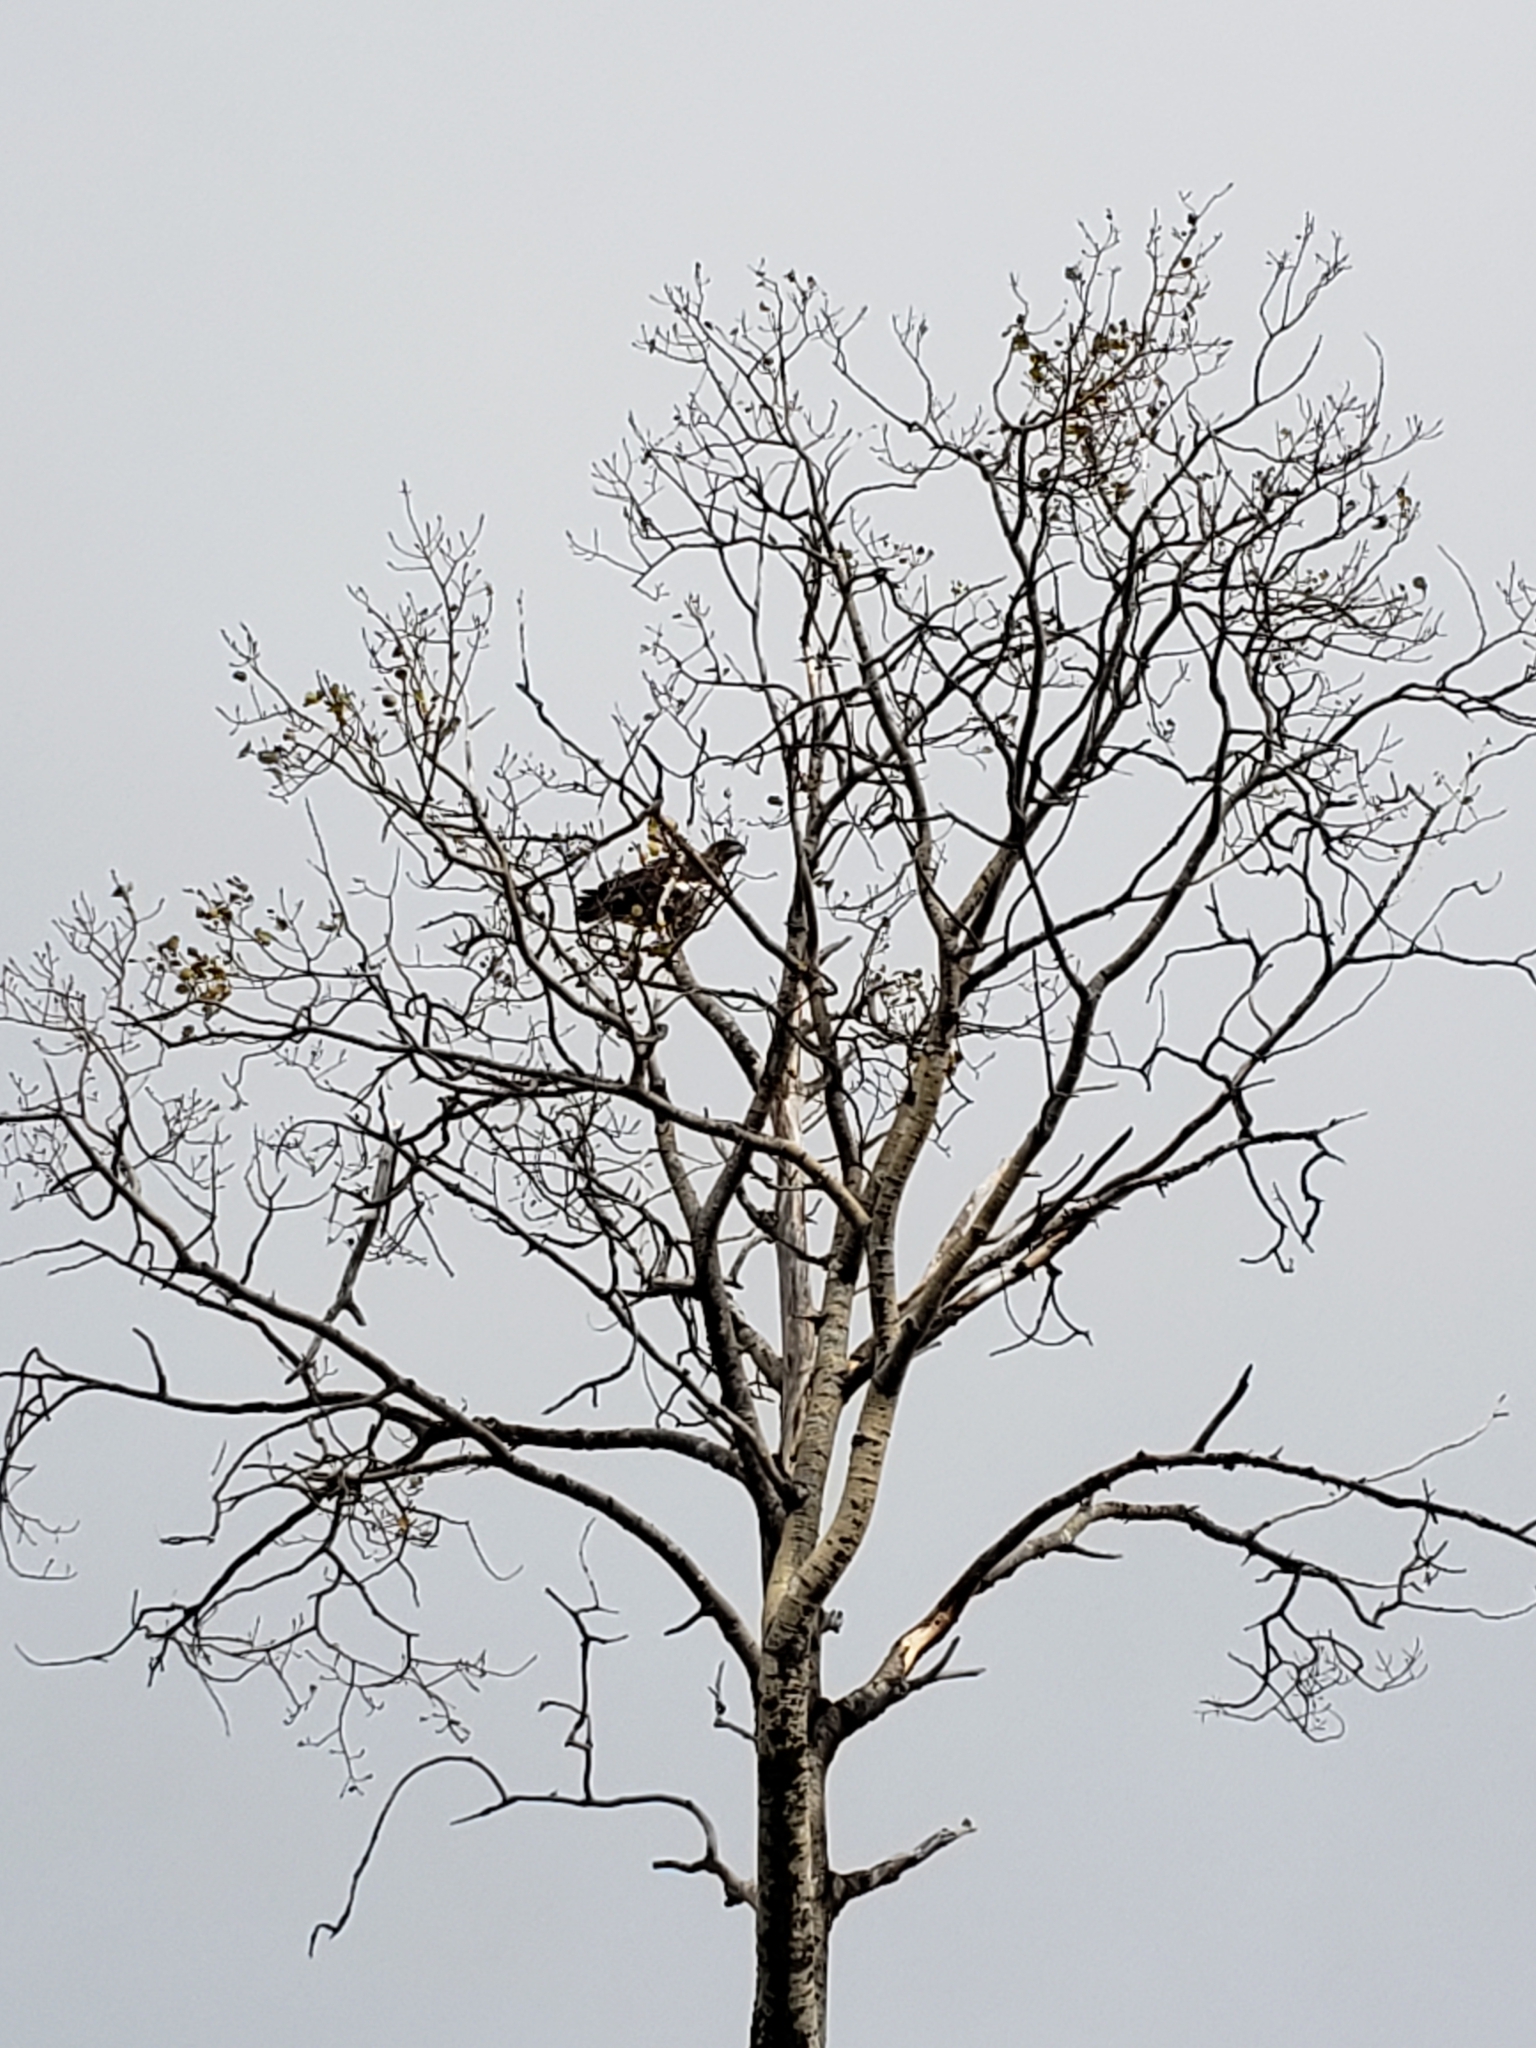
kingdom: Animalia
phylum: Chordata
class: Aves
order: Accipitriformes
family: Accipitridae
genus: Haliaeetus
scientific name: Haliaeetus leucocephalus
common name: Bald eagle
